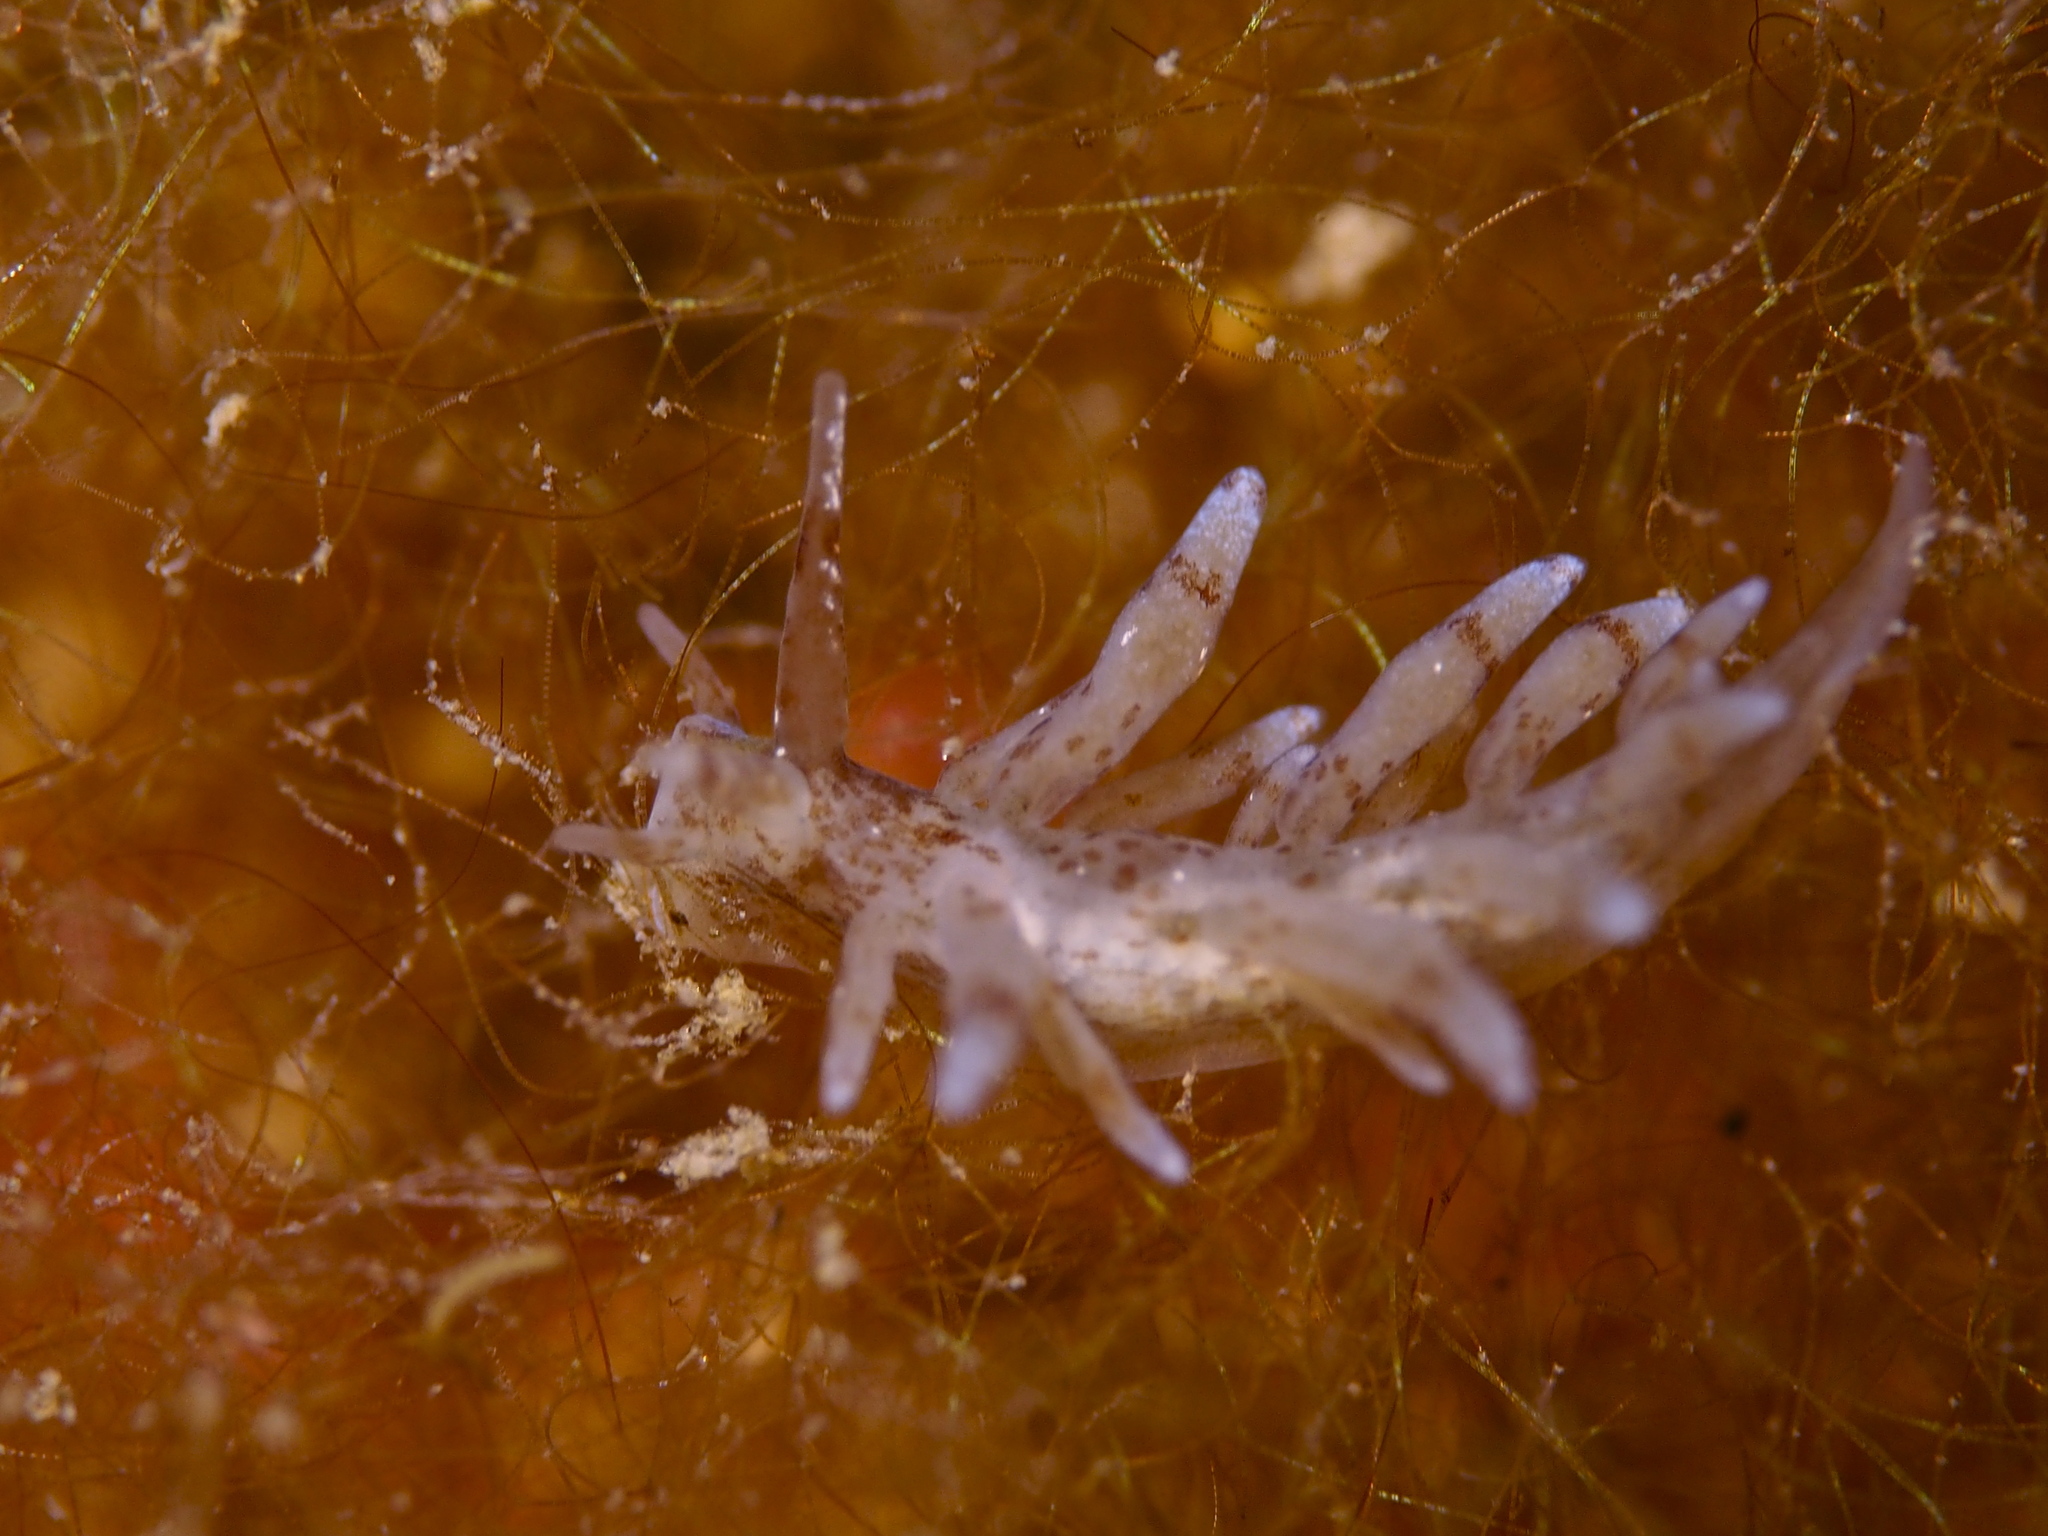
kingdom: Animalia
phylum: Mollusca
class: Gastropoda
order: Nudibranchia
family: Eubranchidae
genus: Eubranchus
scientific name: Eubranchus exiguus
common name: Balloon aeolis
